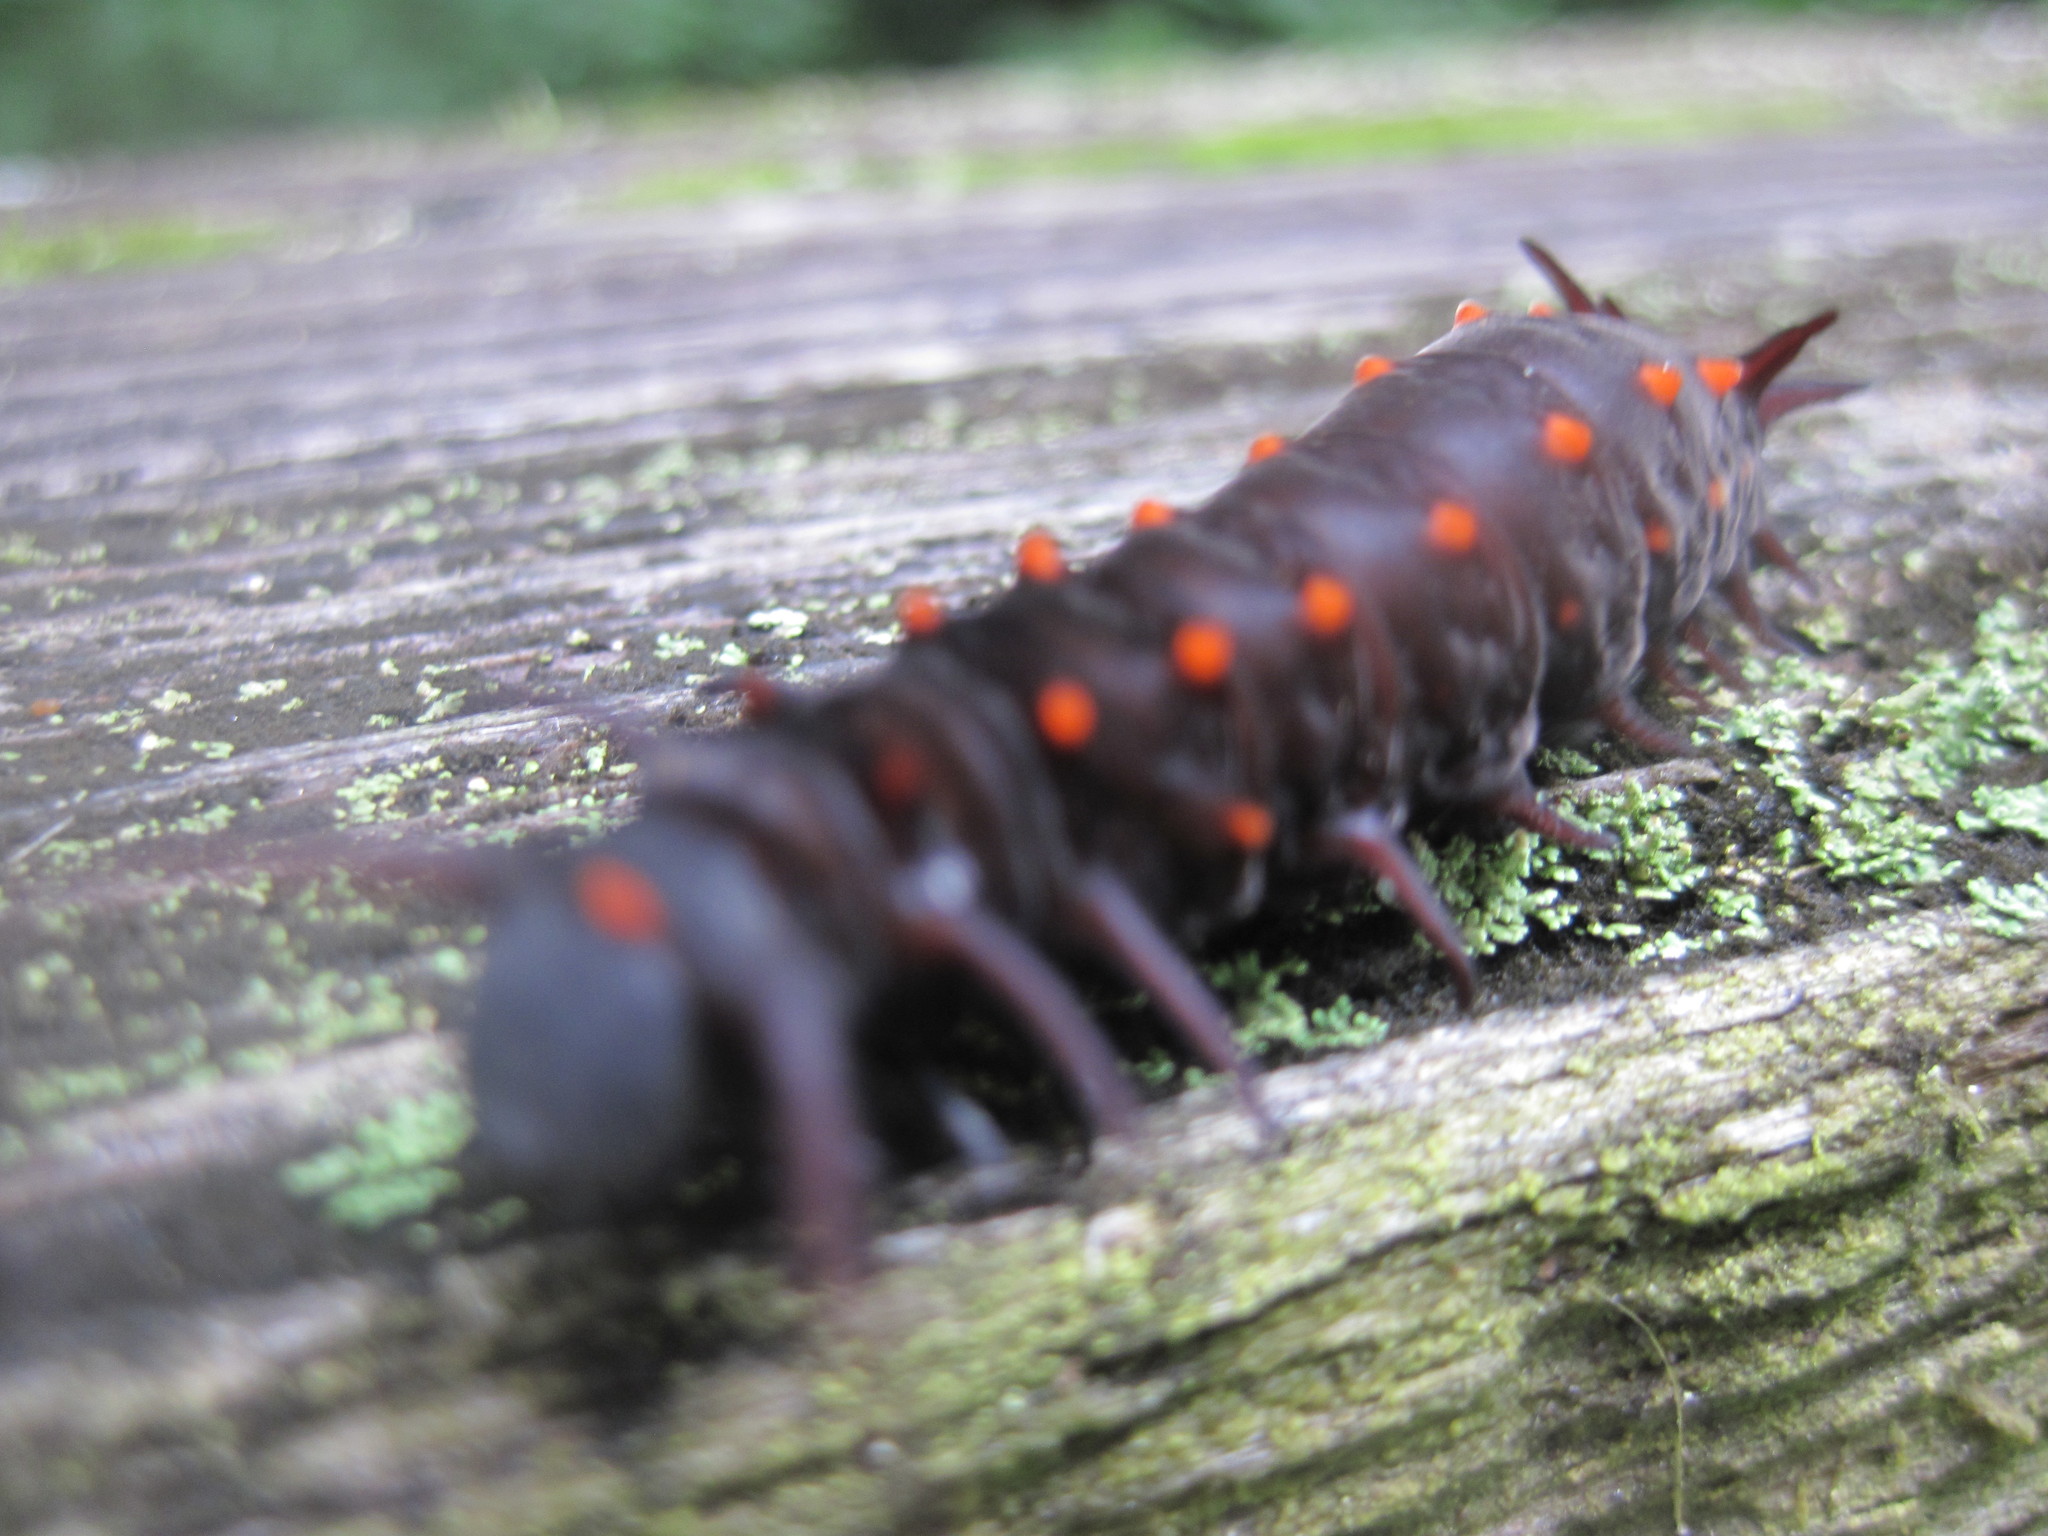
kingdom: Animalia
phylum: Arthropoda
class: Insecta
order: Lepidoptera
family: Papilionidae
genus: Battus
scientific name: Battus philenor
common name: Pipevine swallowtail
